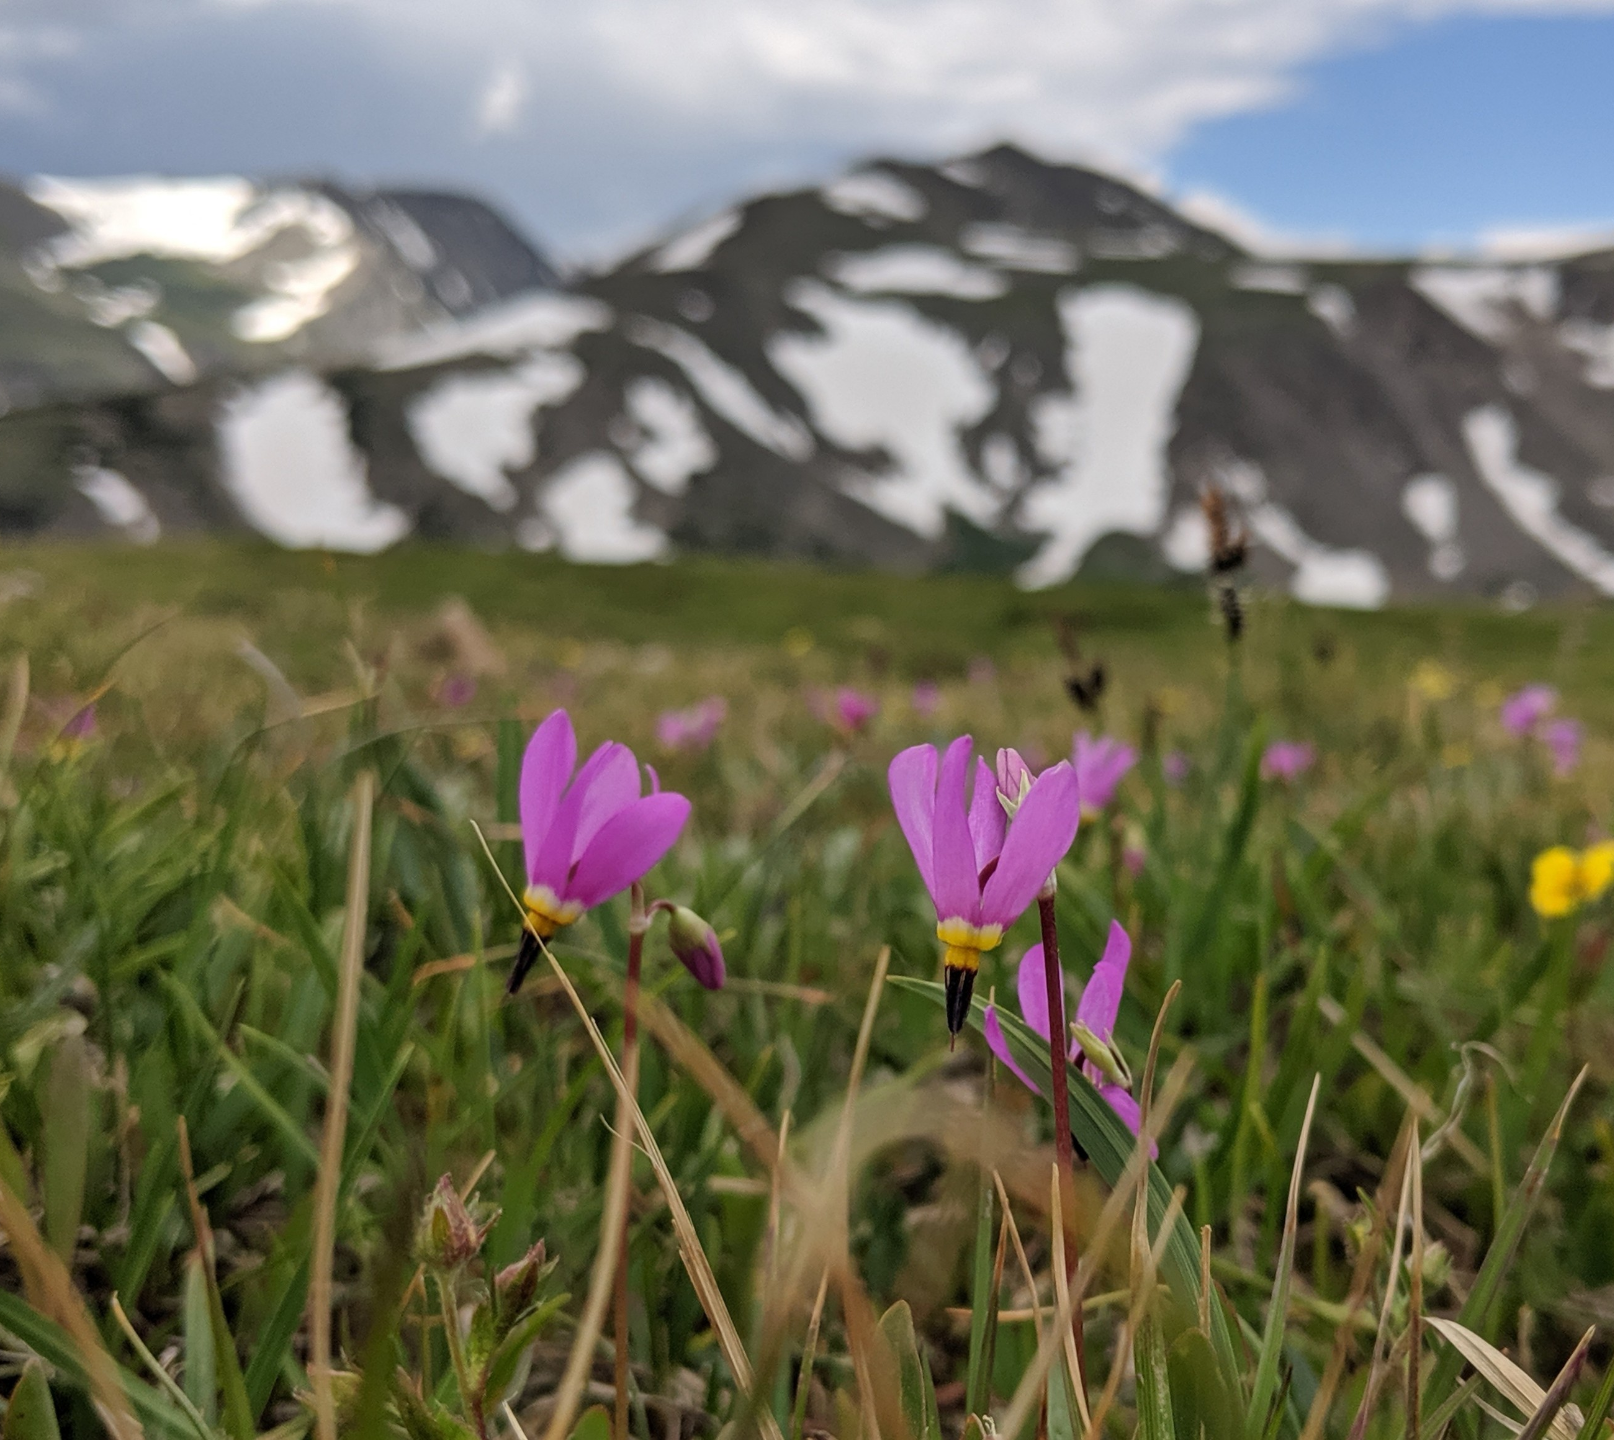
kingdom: Plantae
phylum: Tracheophyta
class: Magnoliopsida
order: Ericales
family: Primulaceae
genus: Dodecatheon
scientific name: Dodecatheon pulchellum
